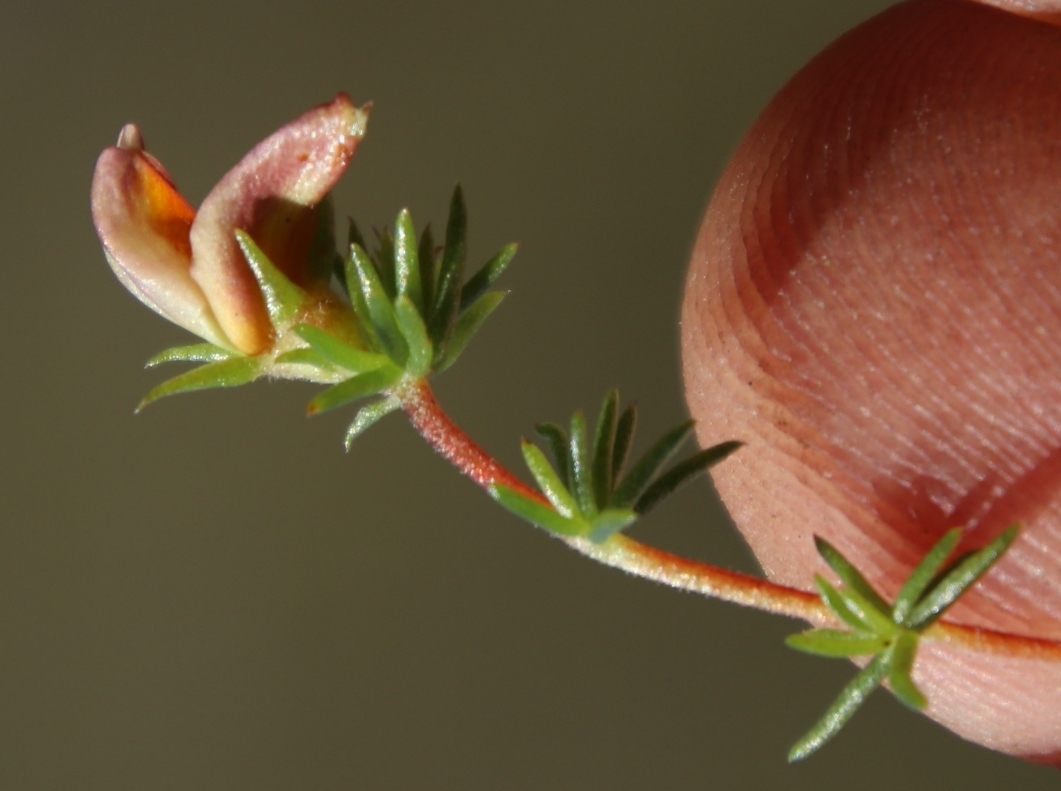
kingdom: Plantae
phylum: Tracheophyta
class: Magnoliopsida
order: Fabales
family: Fabaceae
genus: Aspalathus
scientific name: Aspalathus retroflexa
